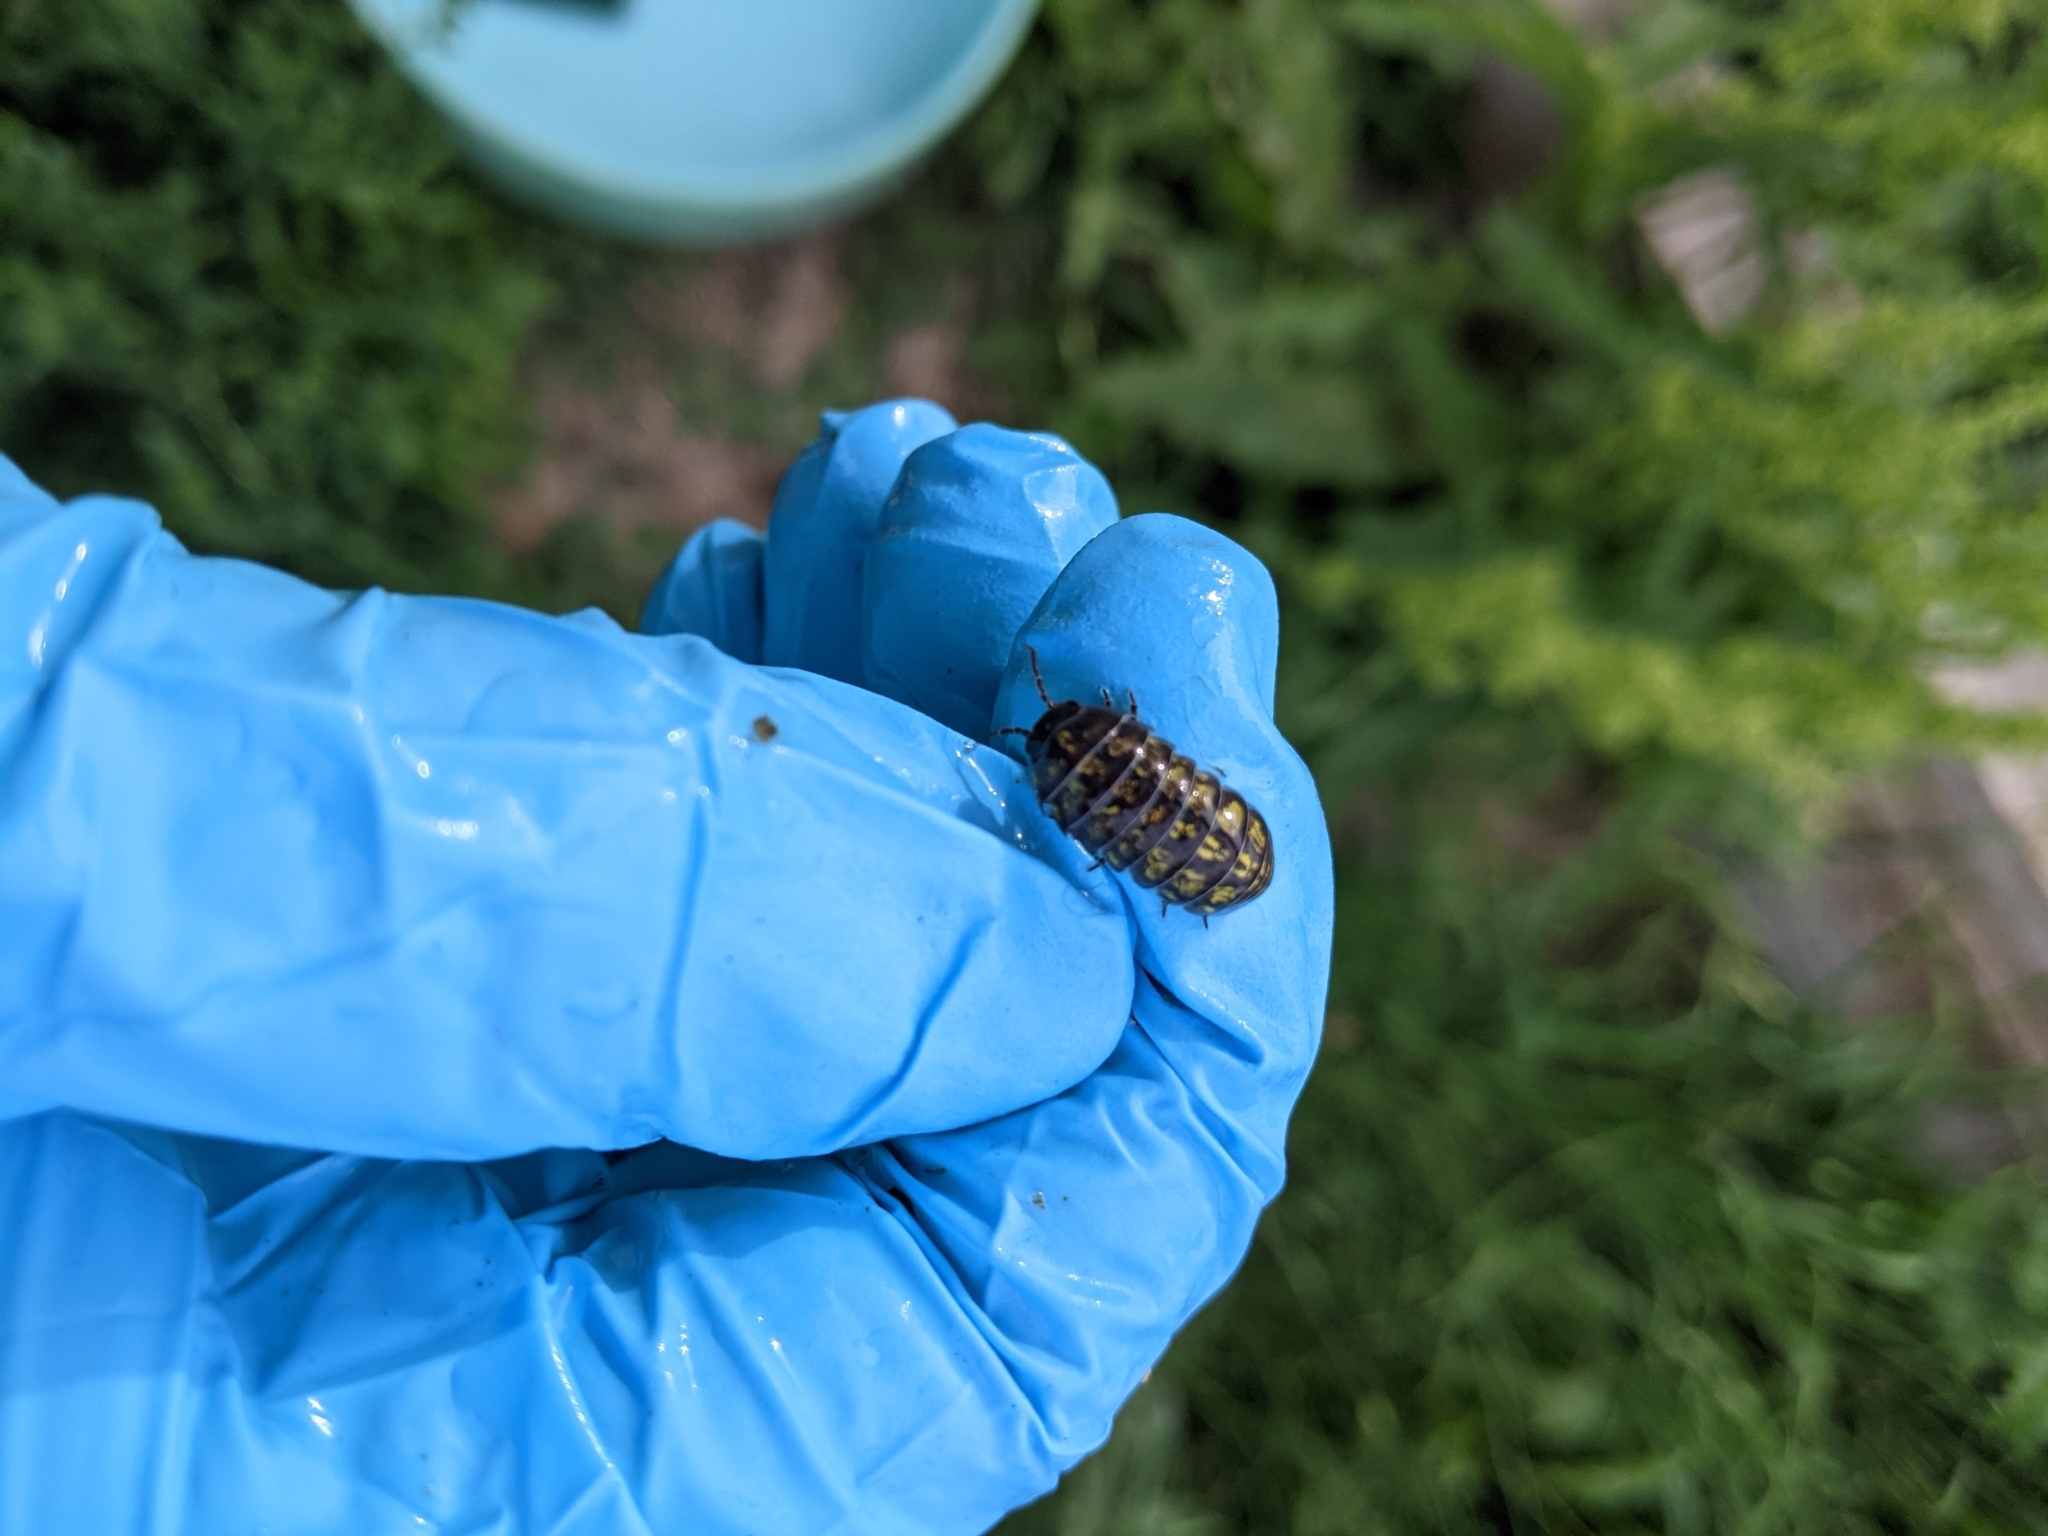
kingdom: Animalia
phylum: Arthropoda
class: Malacostraca
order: Isopoda
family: Armadillidiidae
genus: Armadillidium
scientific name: Armadillidium vulgare
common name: Common pill woodlouse
